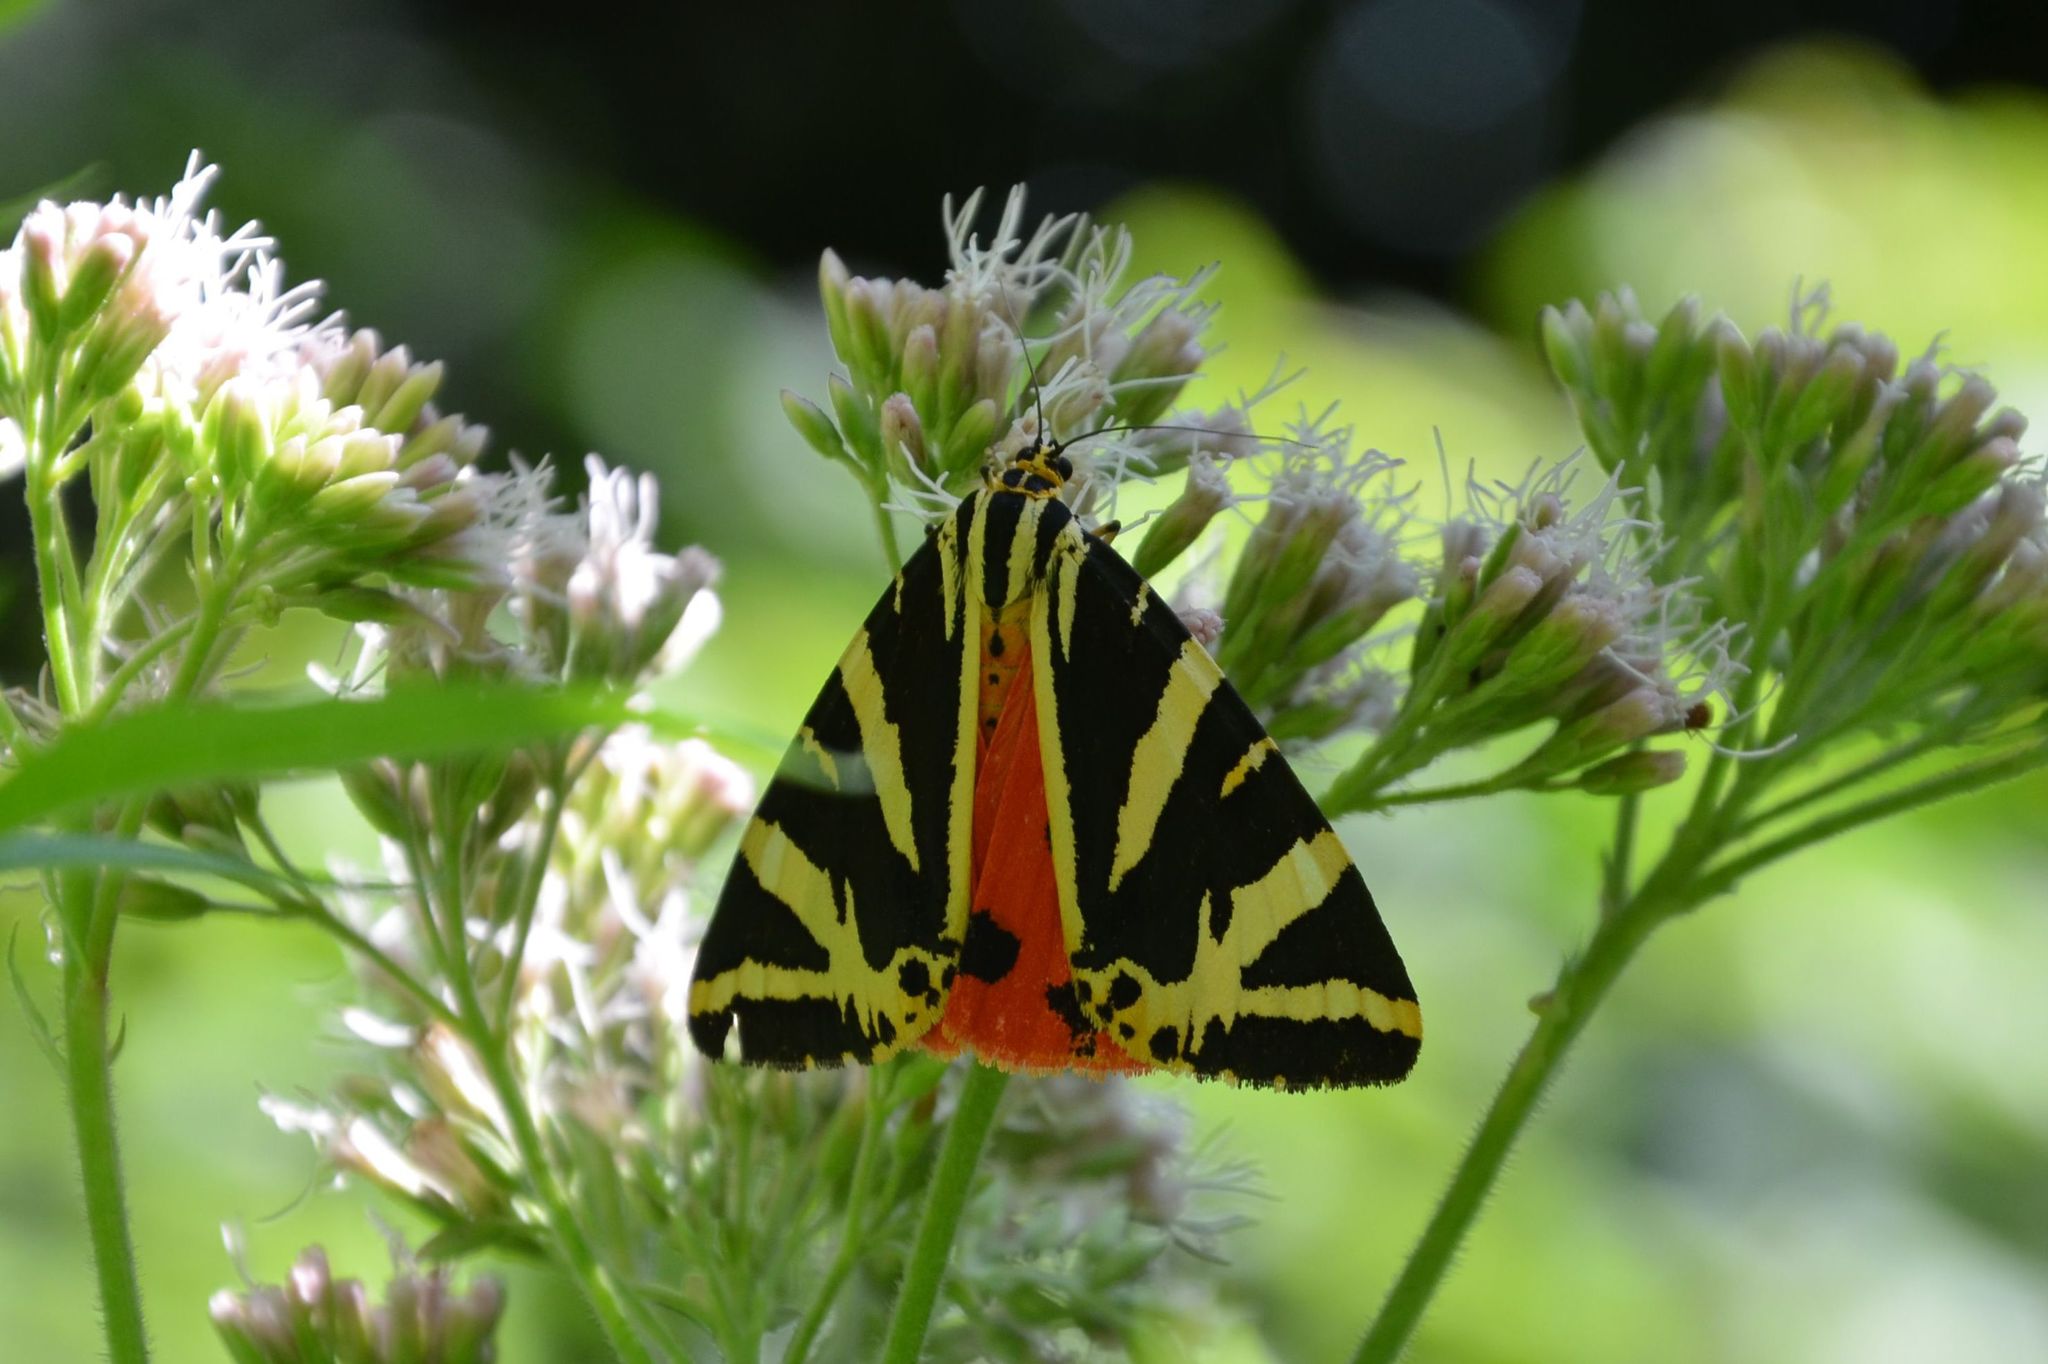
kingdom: Animalia
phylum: Arthropoda
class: Insecta
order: Lepidoptera
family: Erebidae
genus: Euplagia
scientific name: Euplagia quadripunctaria
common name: Jersey tiger
